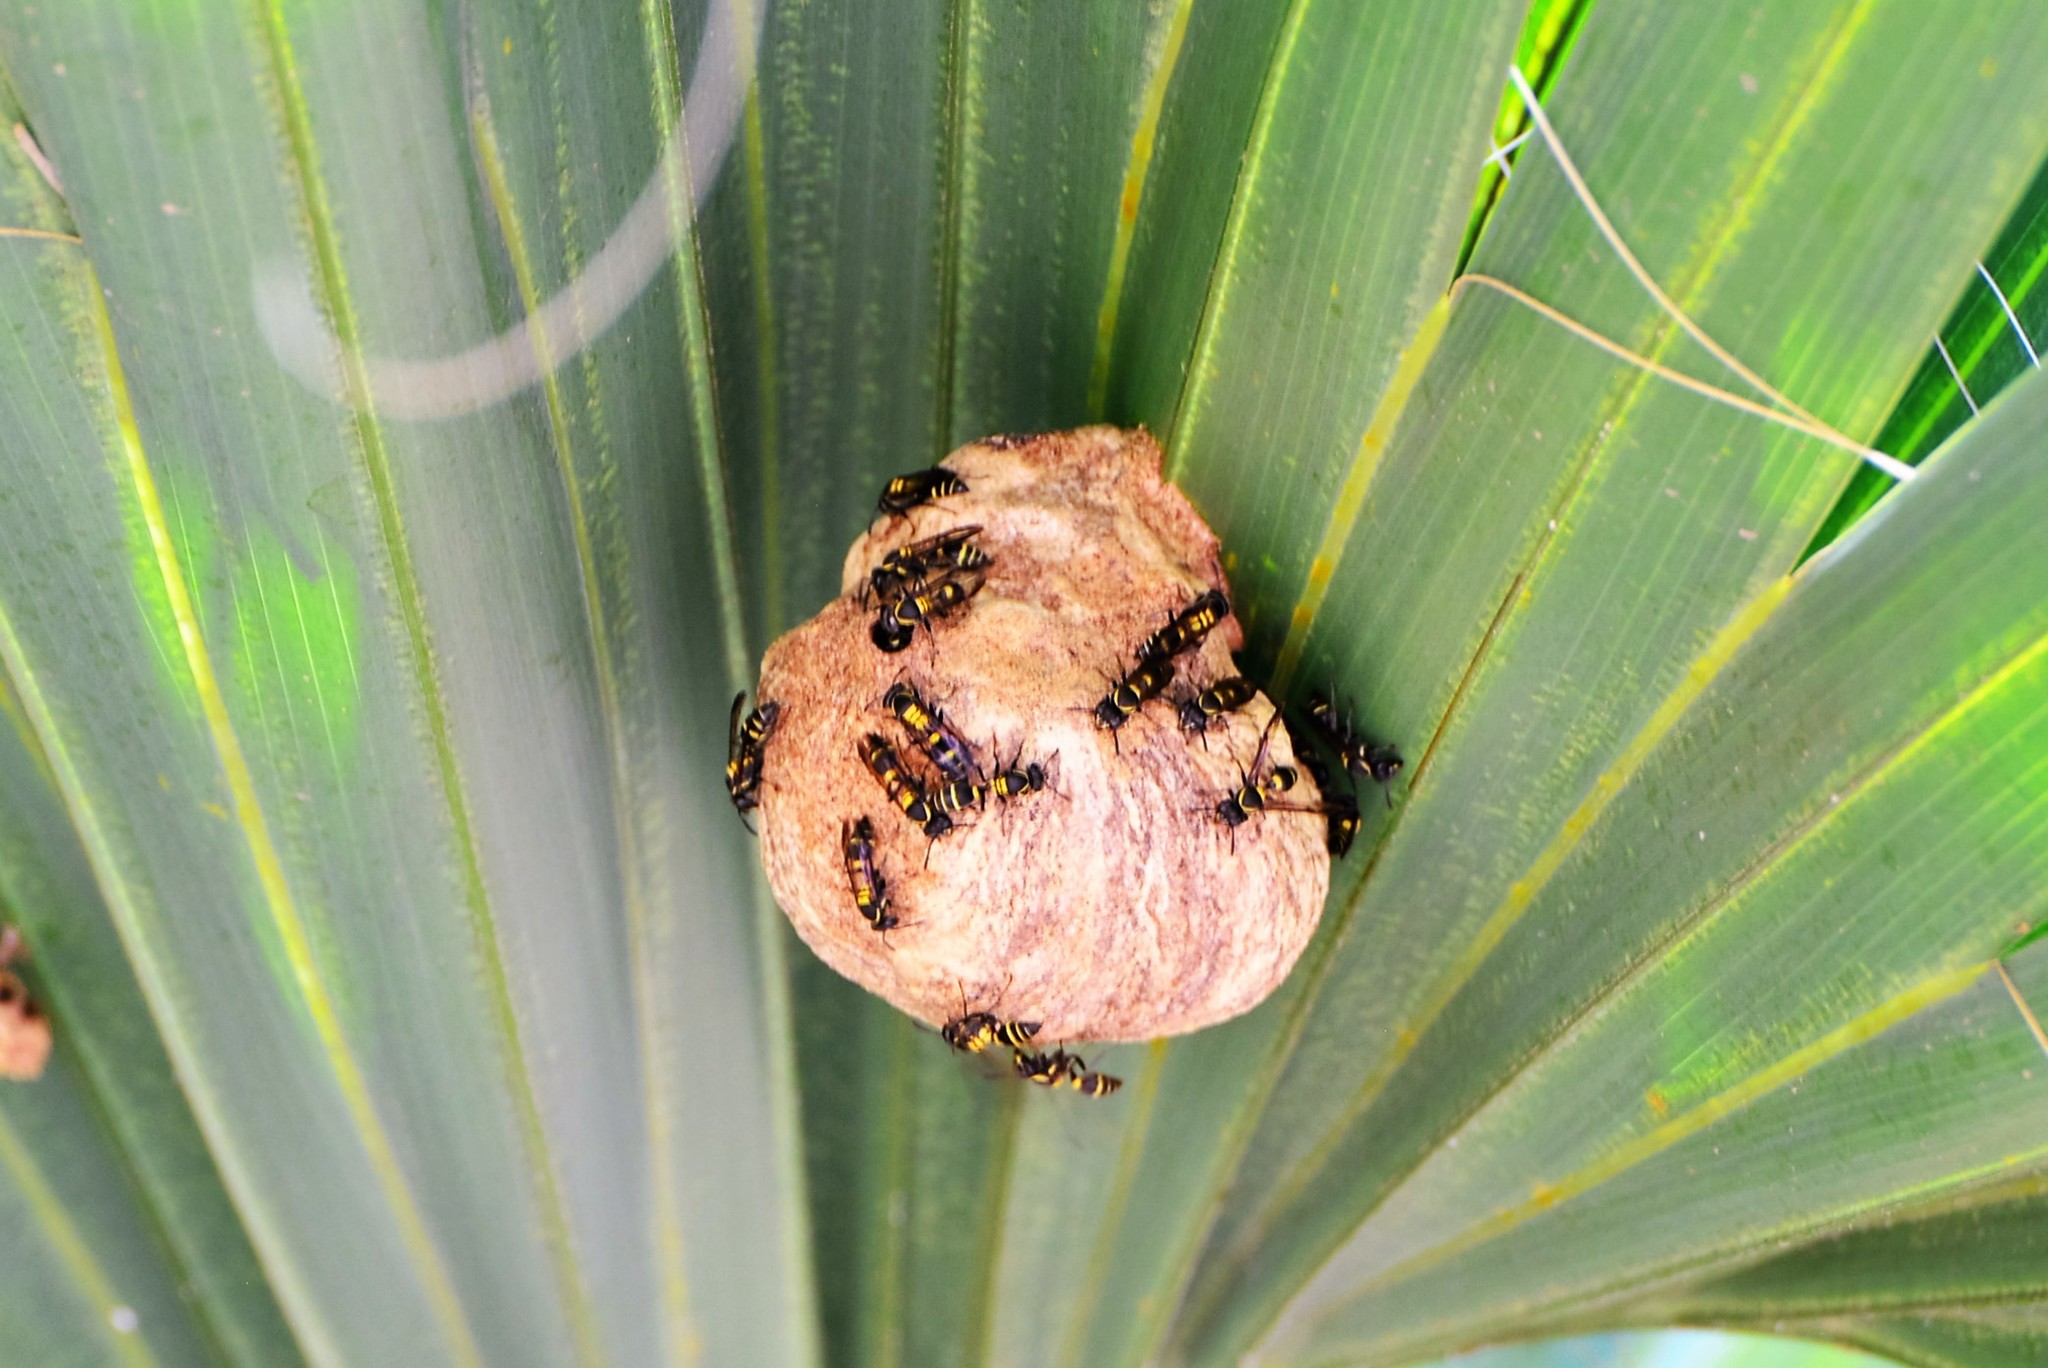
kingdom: Animalia
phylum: Arthropoda
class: Insecta
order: Hymenoptera
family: Eumenidae
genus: Polybia
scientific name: Polybia occidentalis
